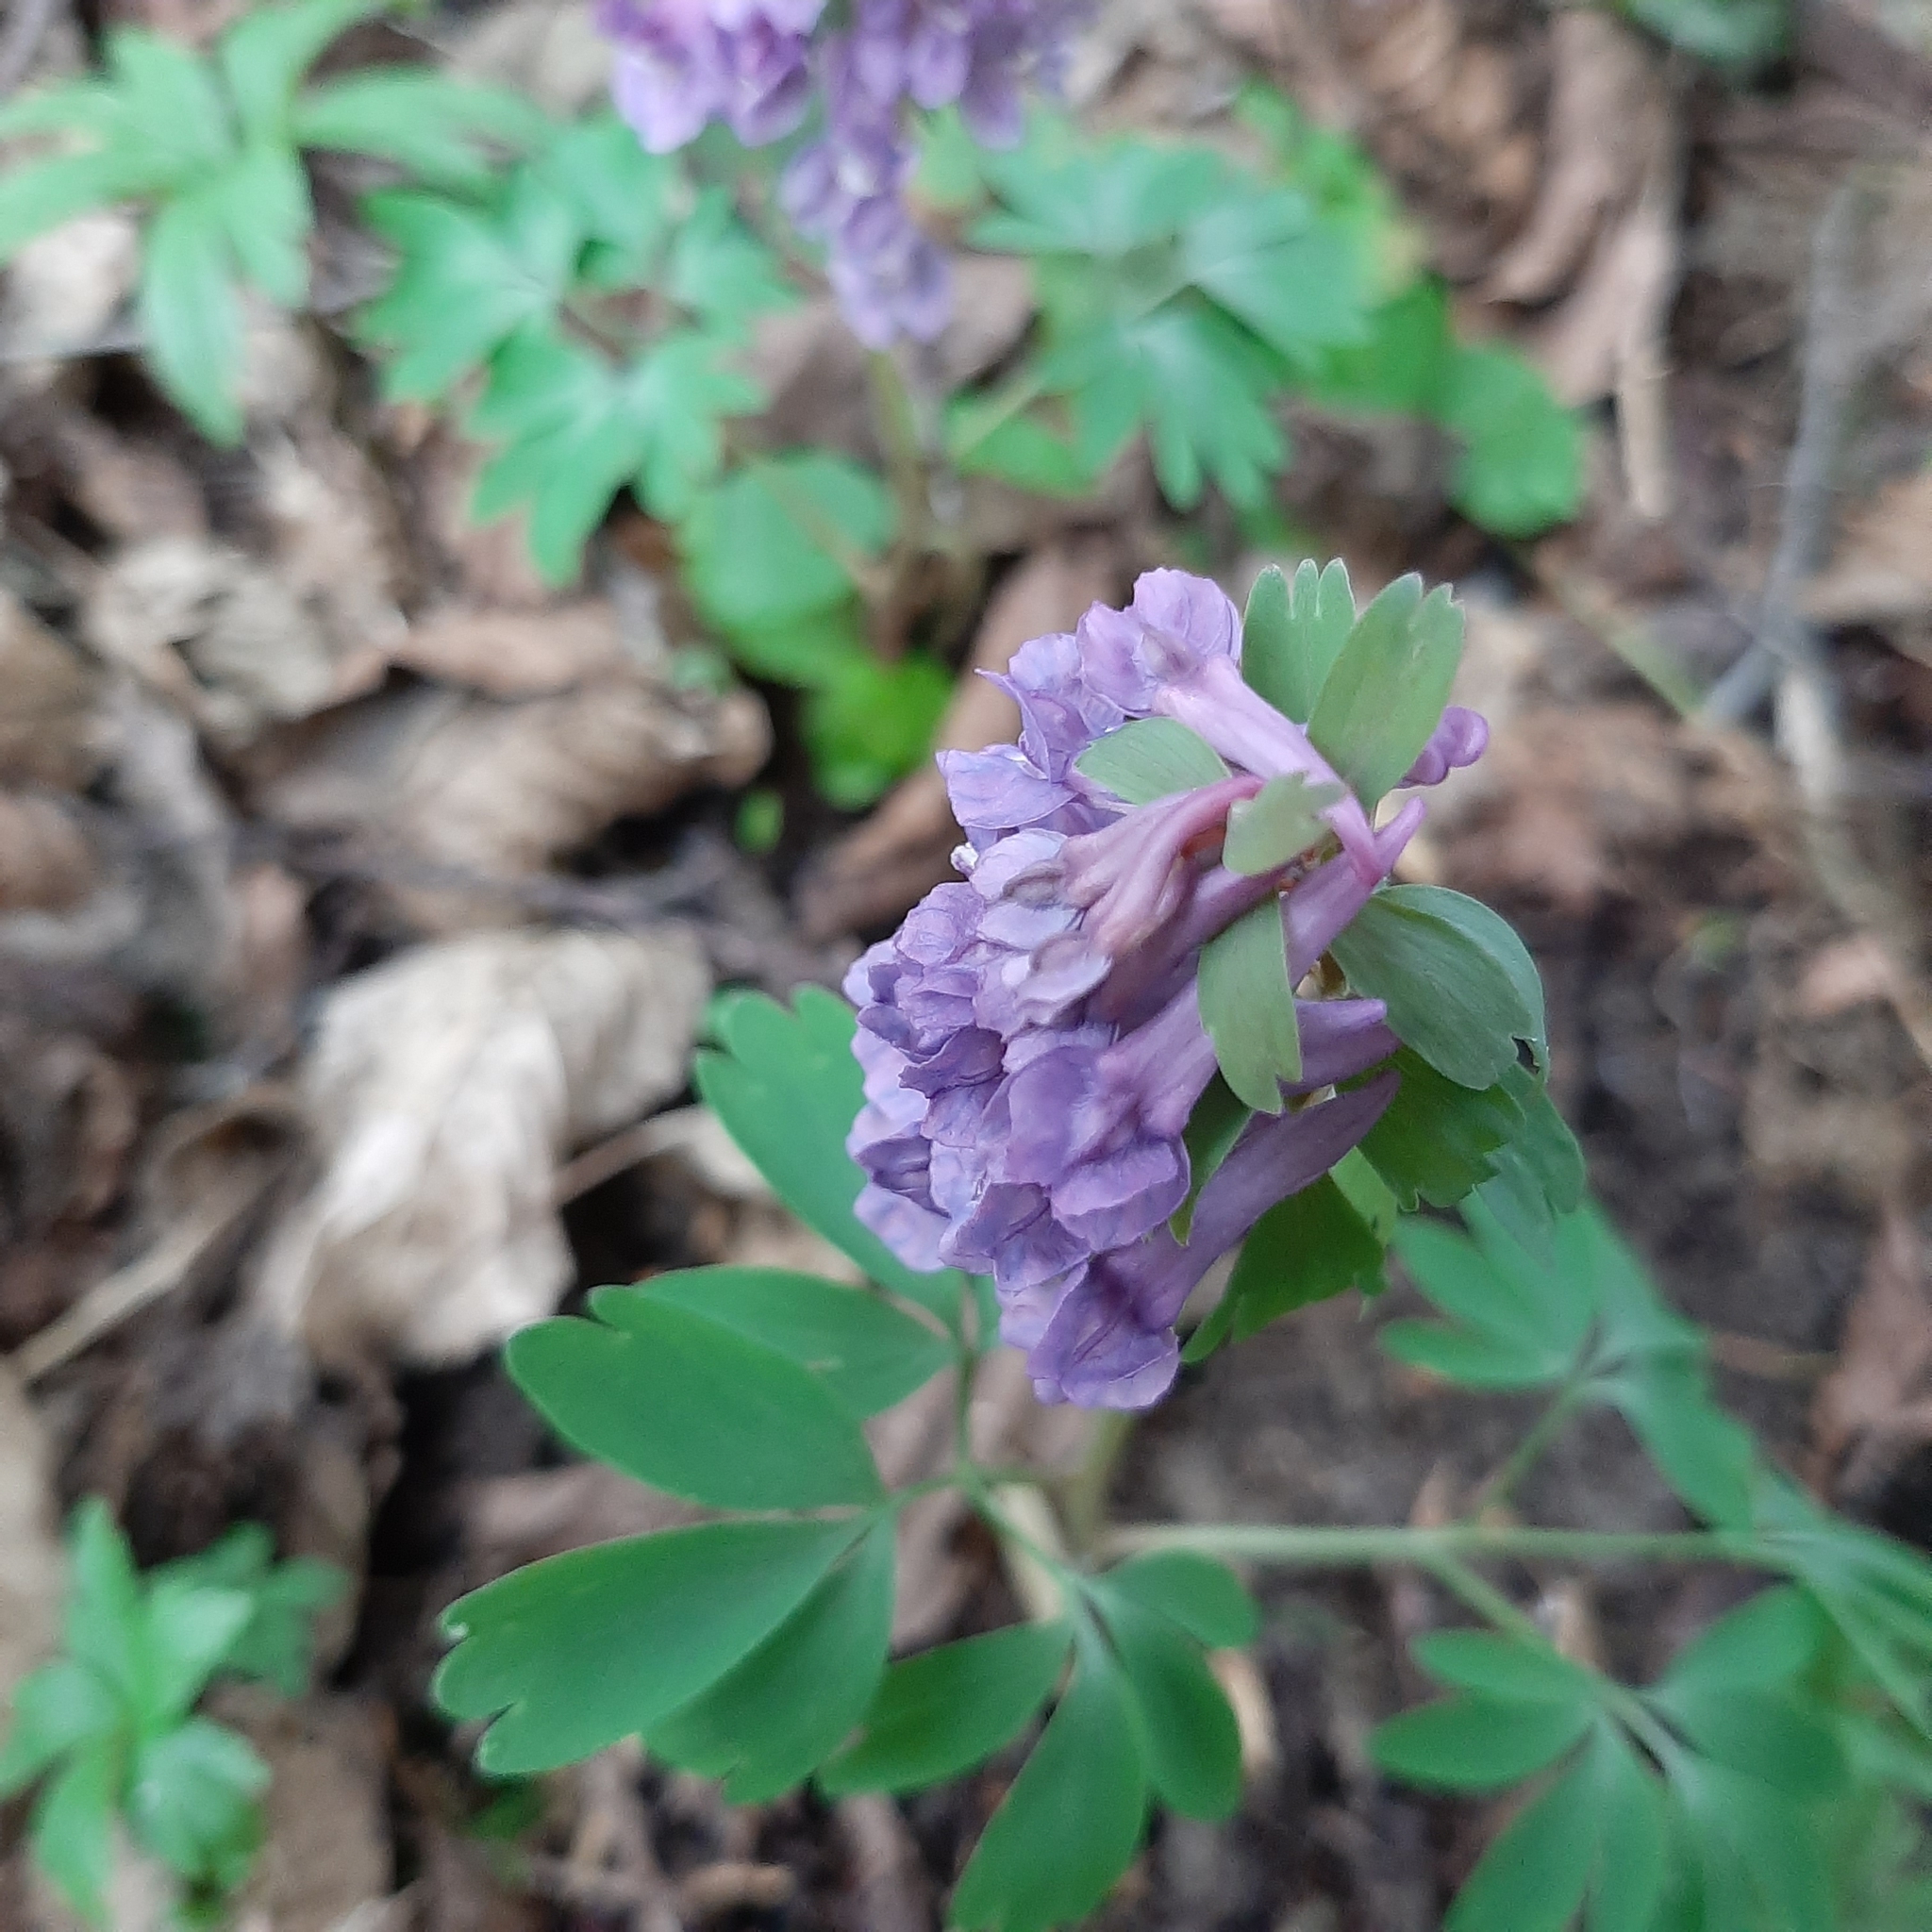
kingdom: Plantae
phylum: Tracheophyta
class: Magnoliopsida
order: Ranunculales
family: Papaveraceae
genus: Corydalis
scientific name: Corydalis solida
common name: Bird-in-a-bush
